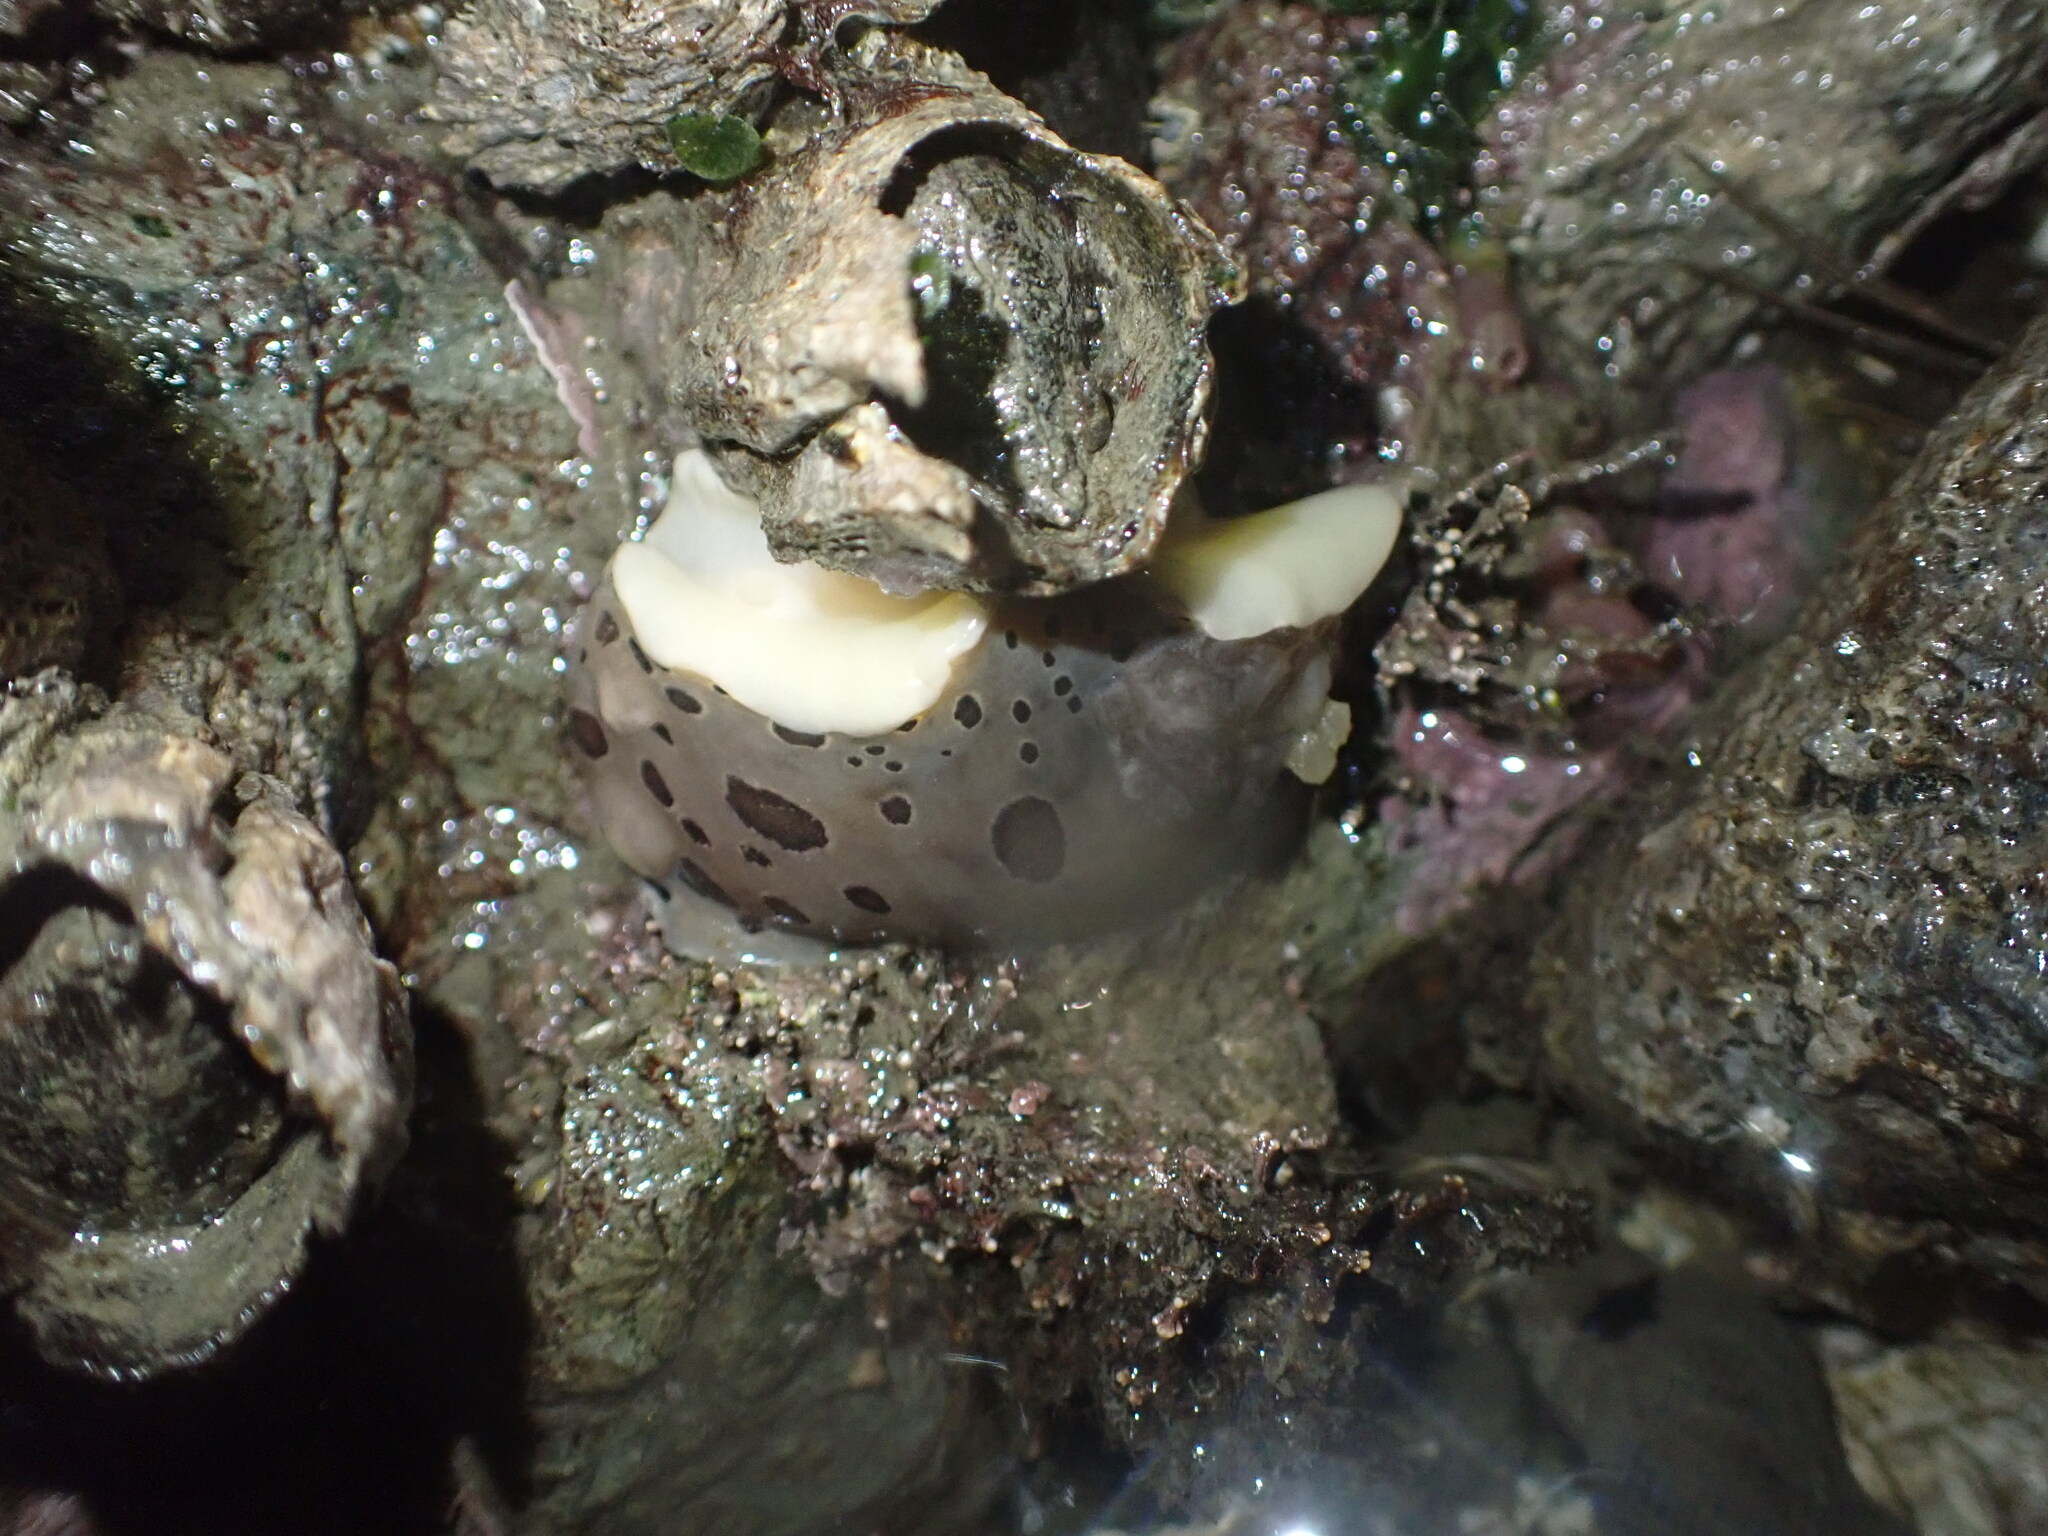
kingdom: Animalia
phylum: Mollusca
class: Gastropoda
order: Nudibranchia
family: Discodorididae
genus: Diaulula
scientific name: Diaulula odonoghuei
